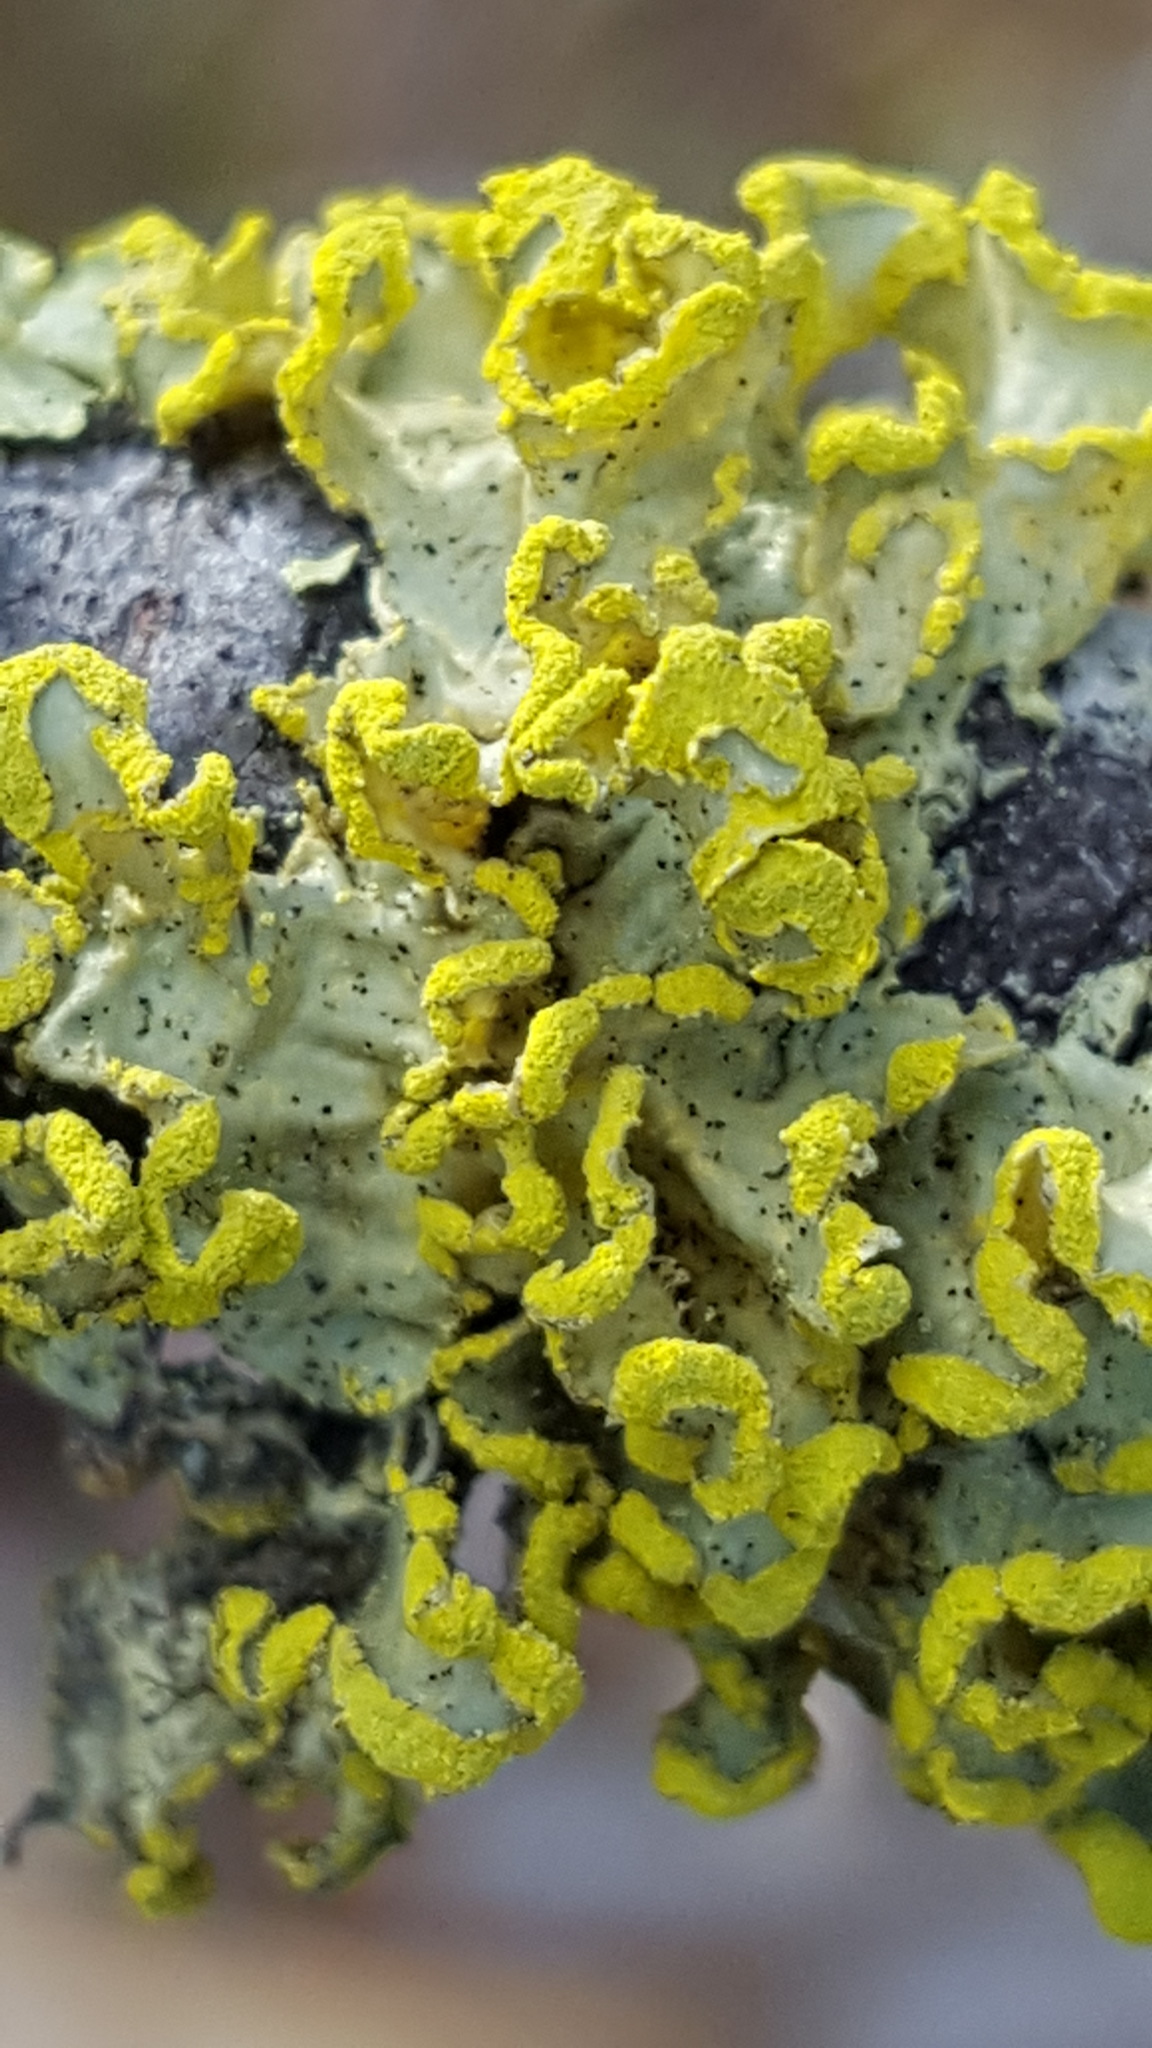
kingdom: Fungi
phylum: Ascomycota
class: Lecanoromycetes
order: Lecanorales
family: Parmeliaceae
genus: Vulpicida
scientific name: Vulpicida pinastri
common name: Powdered sunshine lichen
